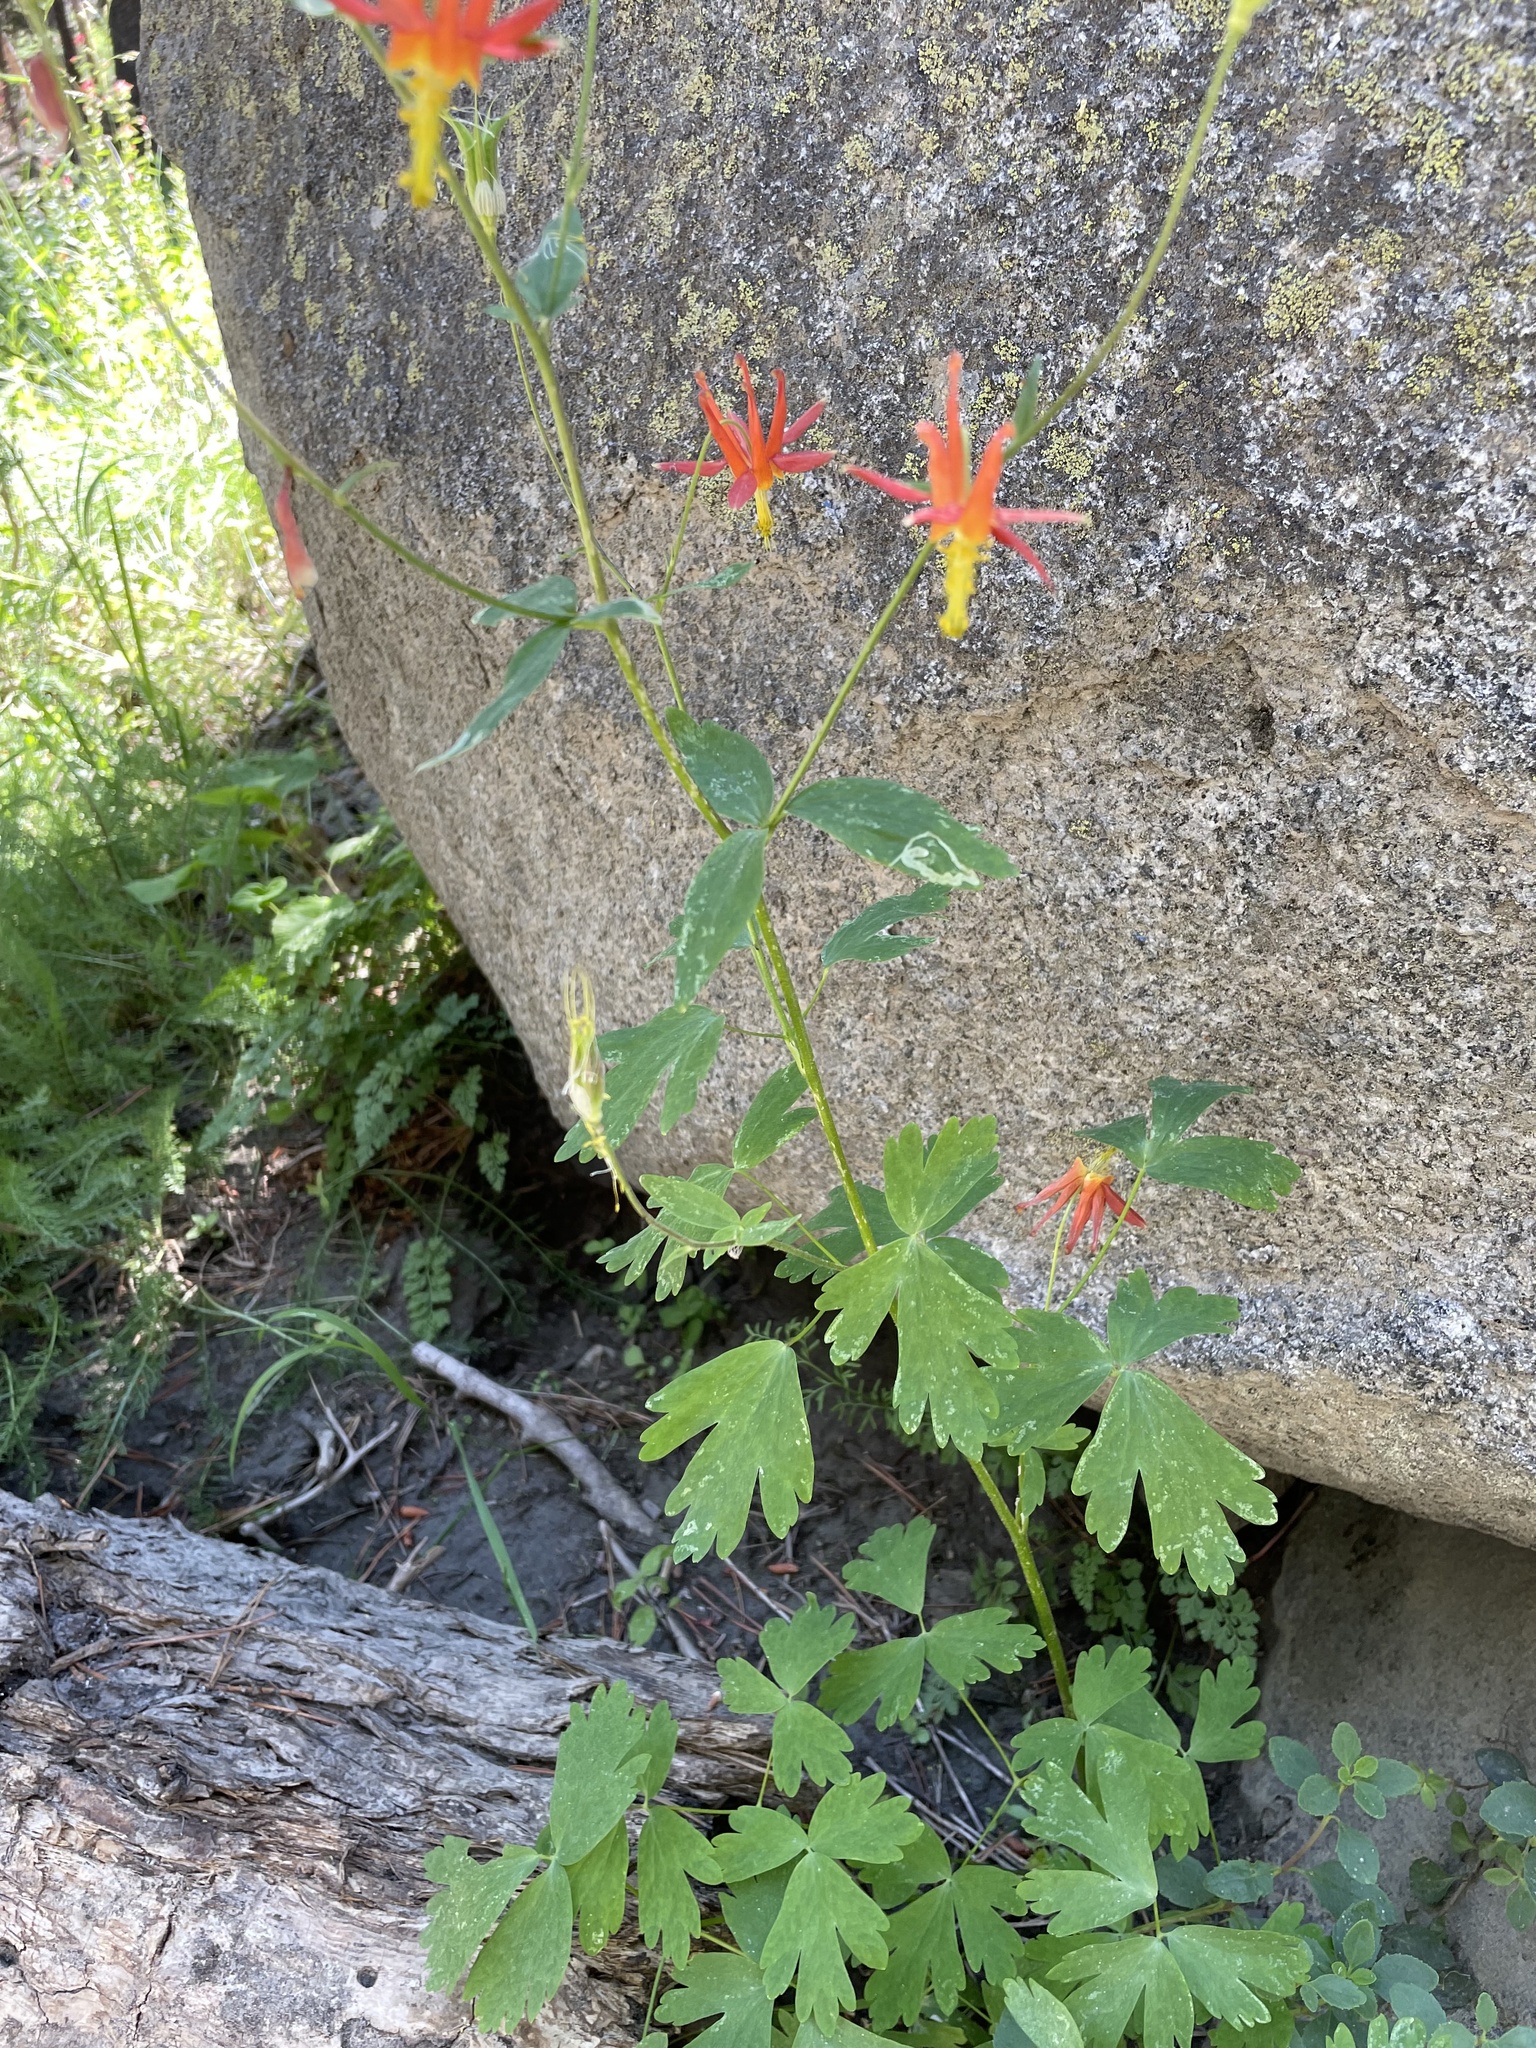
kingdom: Plantae
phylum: Tracheophyta
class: Magnoliopsida
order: Ranunculales
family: Ranunculaceae
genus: Aquilegia
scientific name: Aquilegia formosa
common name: Sitka columbine
